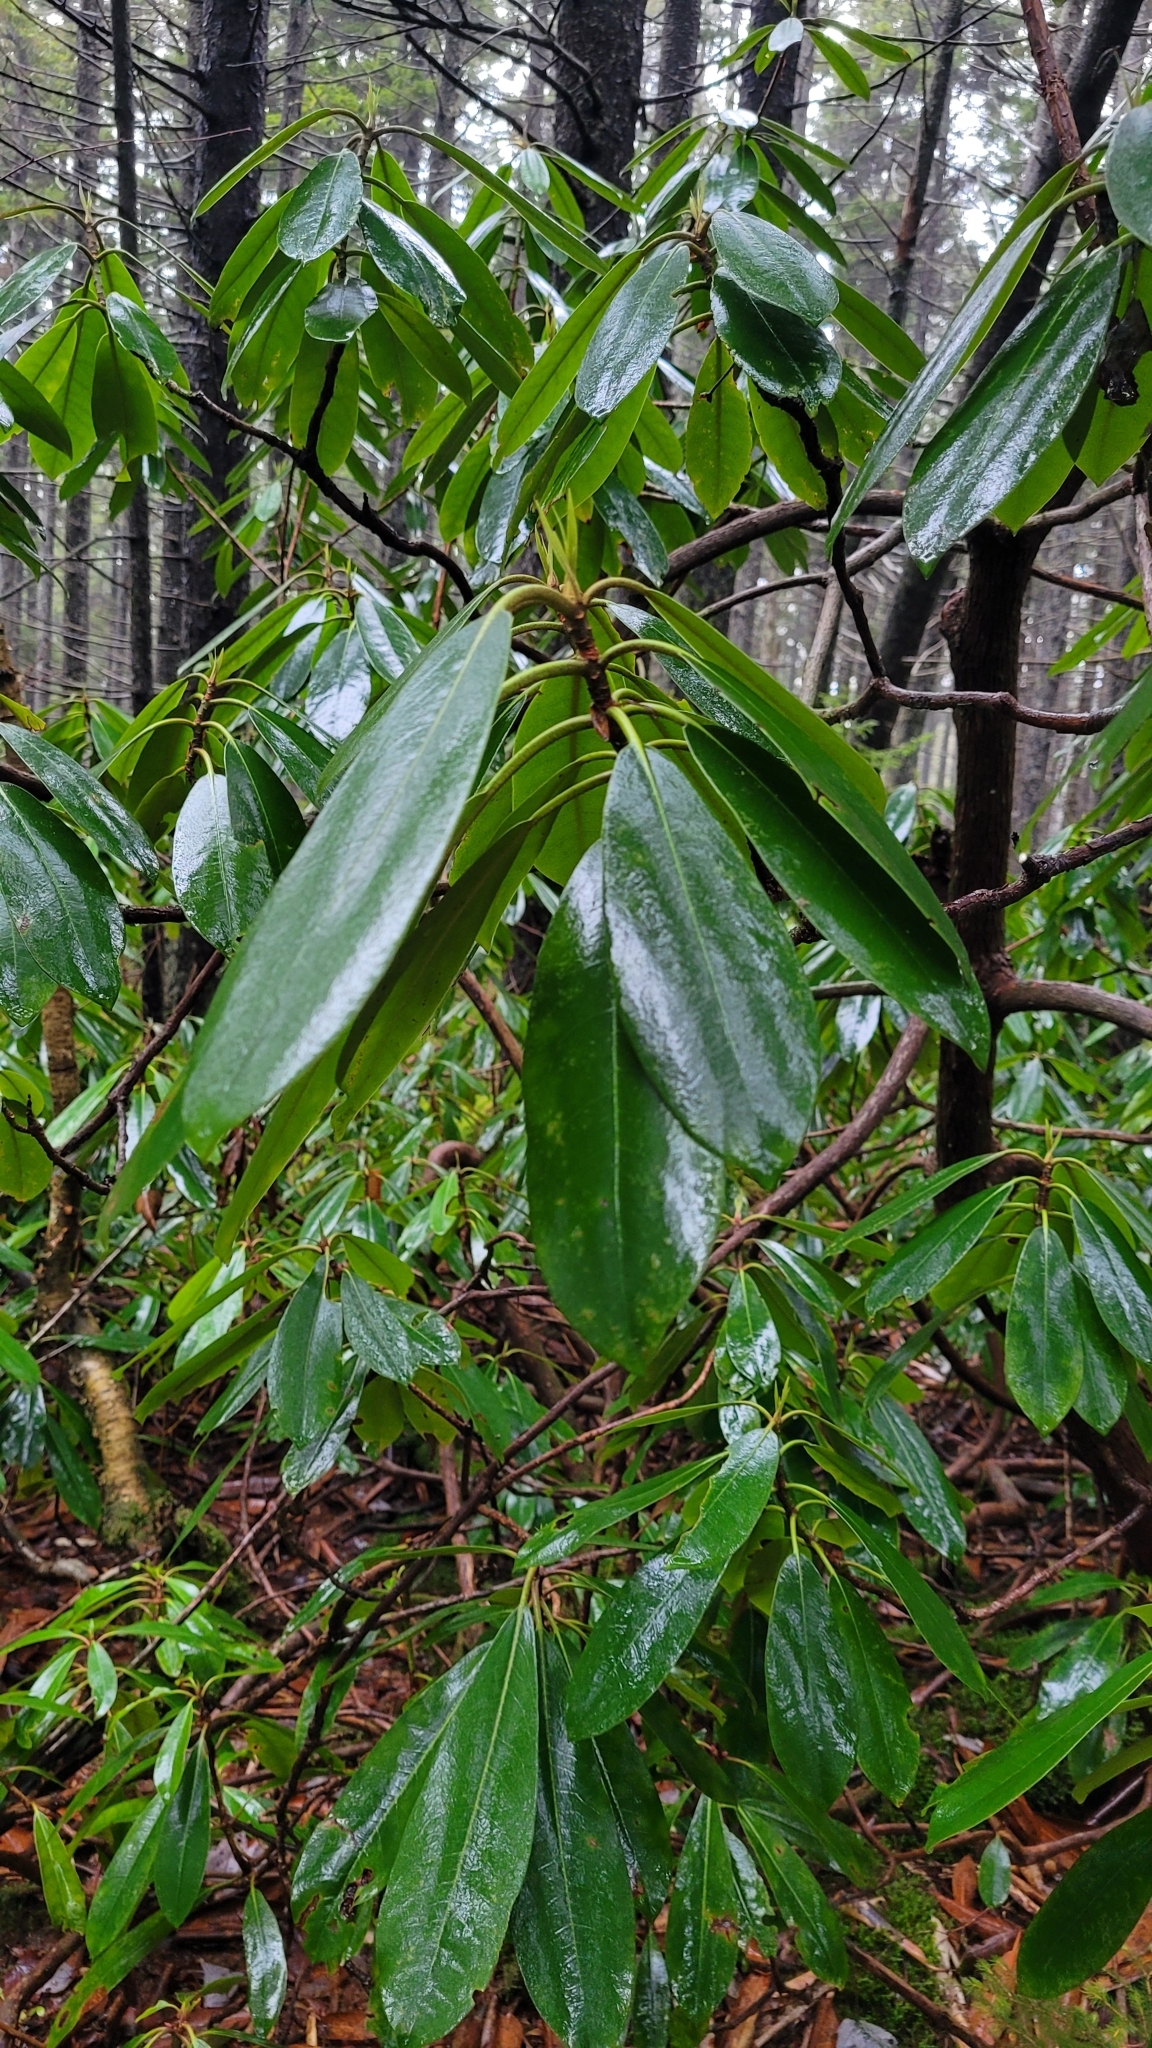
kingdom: Plantae
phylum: Tracheophyta
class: Magnoliopsida
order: Ericales
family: Ericaceae
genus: Rhododendron
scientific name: Rhododendron maximum
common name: Great rhododendron
